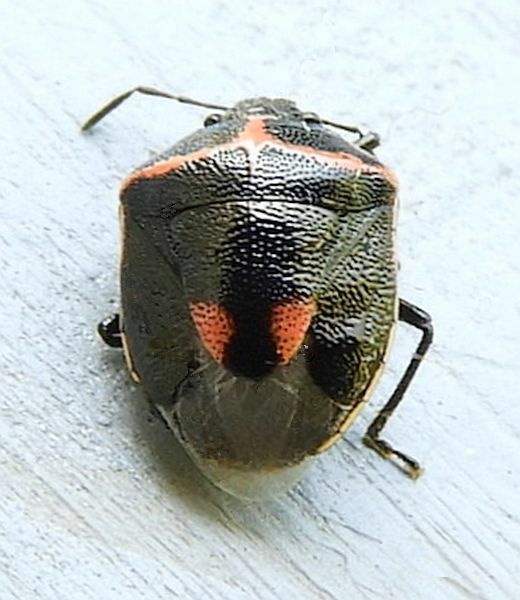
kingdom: Animalia
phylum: Arthropoda
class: Insecta
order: Hemiptera
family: Pentatomidae
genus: Cosmopepla
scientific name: Cosmopepla lintneriana
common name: Twice-stabbed stink bug
